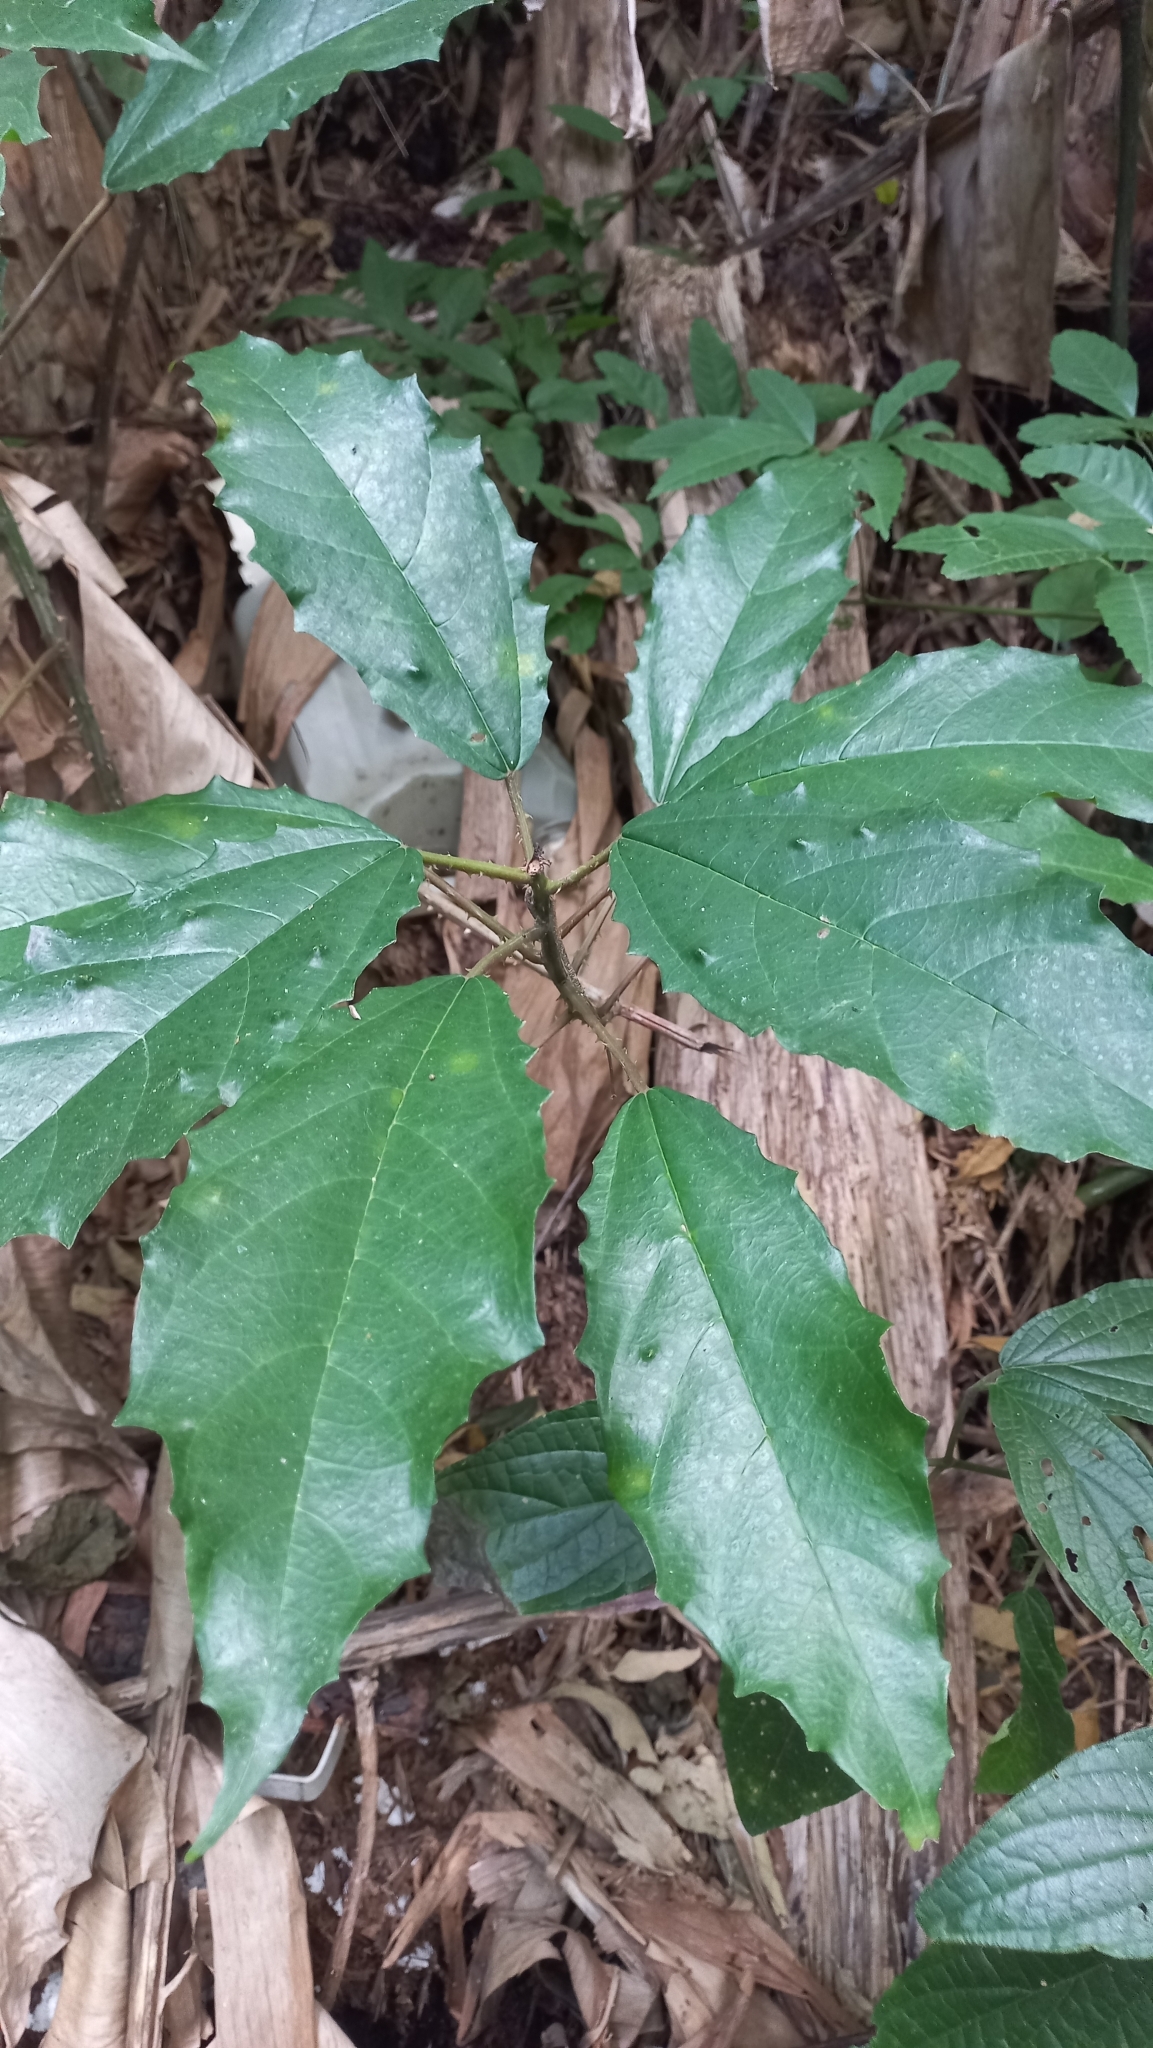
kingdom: Plantae
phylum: Tracheophyta
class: Magnoliopsida
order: Rosales
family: Urticaceae
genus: Urera
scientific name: Urera nitida
